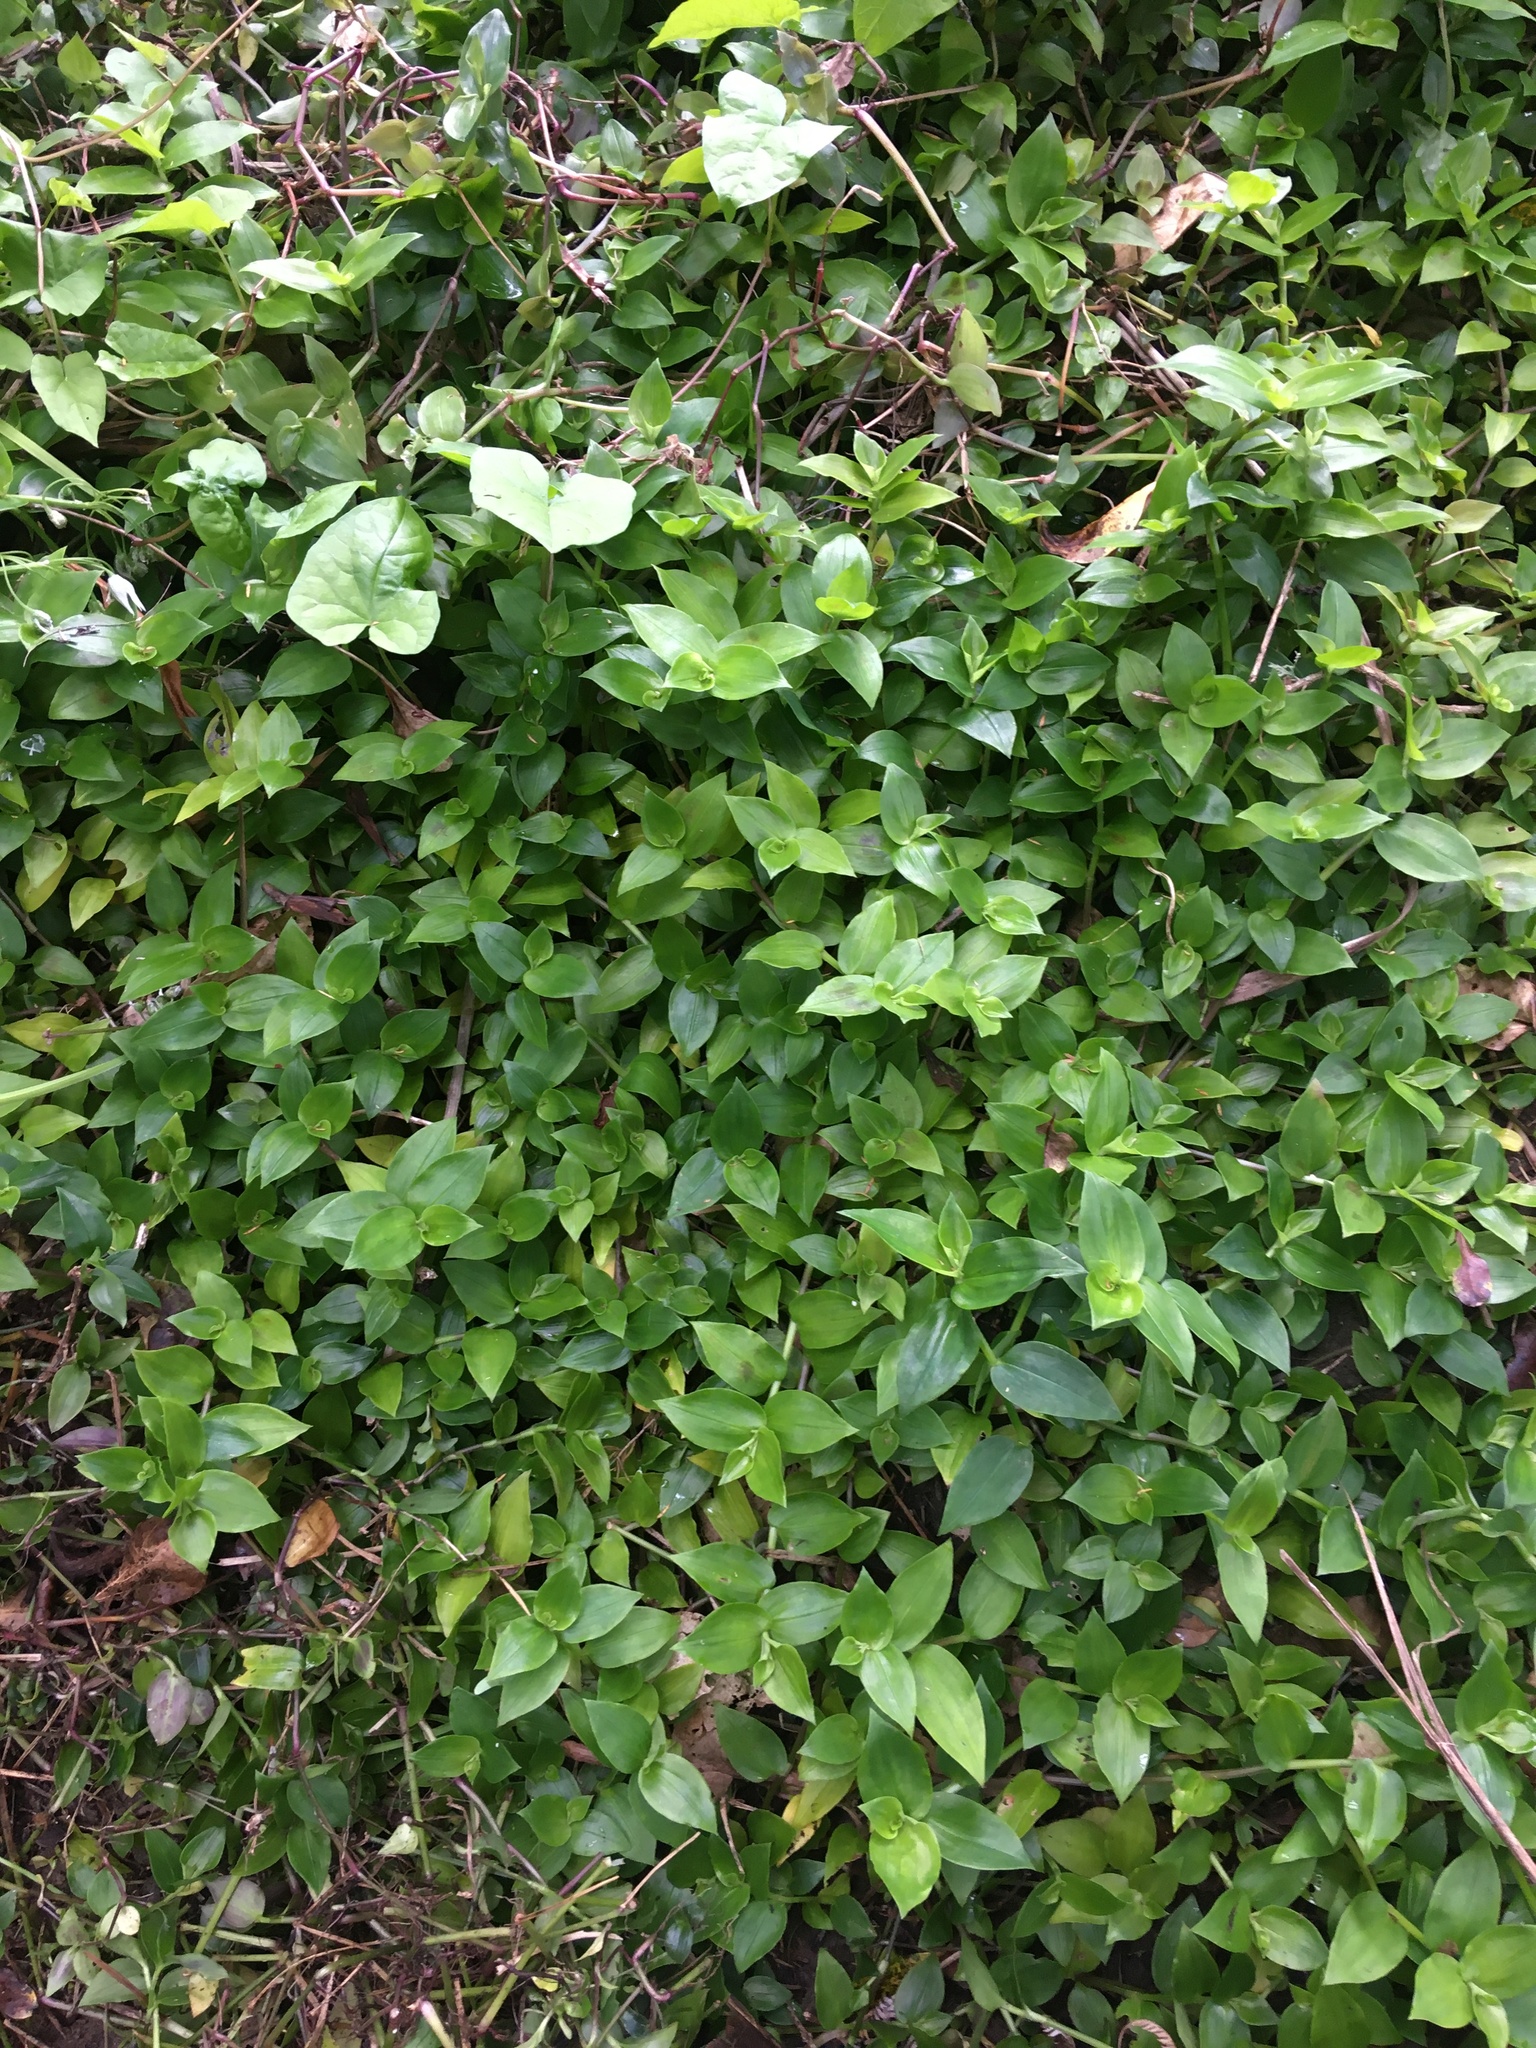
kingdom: Plantae
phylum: Tracheophyta
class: Liliopsida
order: Commelinales
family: Commelinaceae
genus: Tradescantia
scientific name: Tradescantia fluminensis
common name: Wandering-jew
